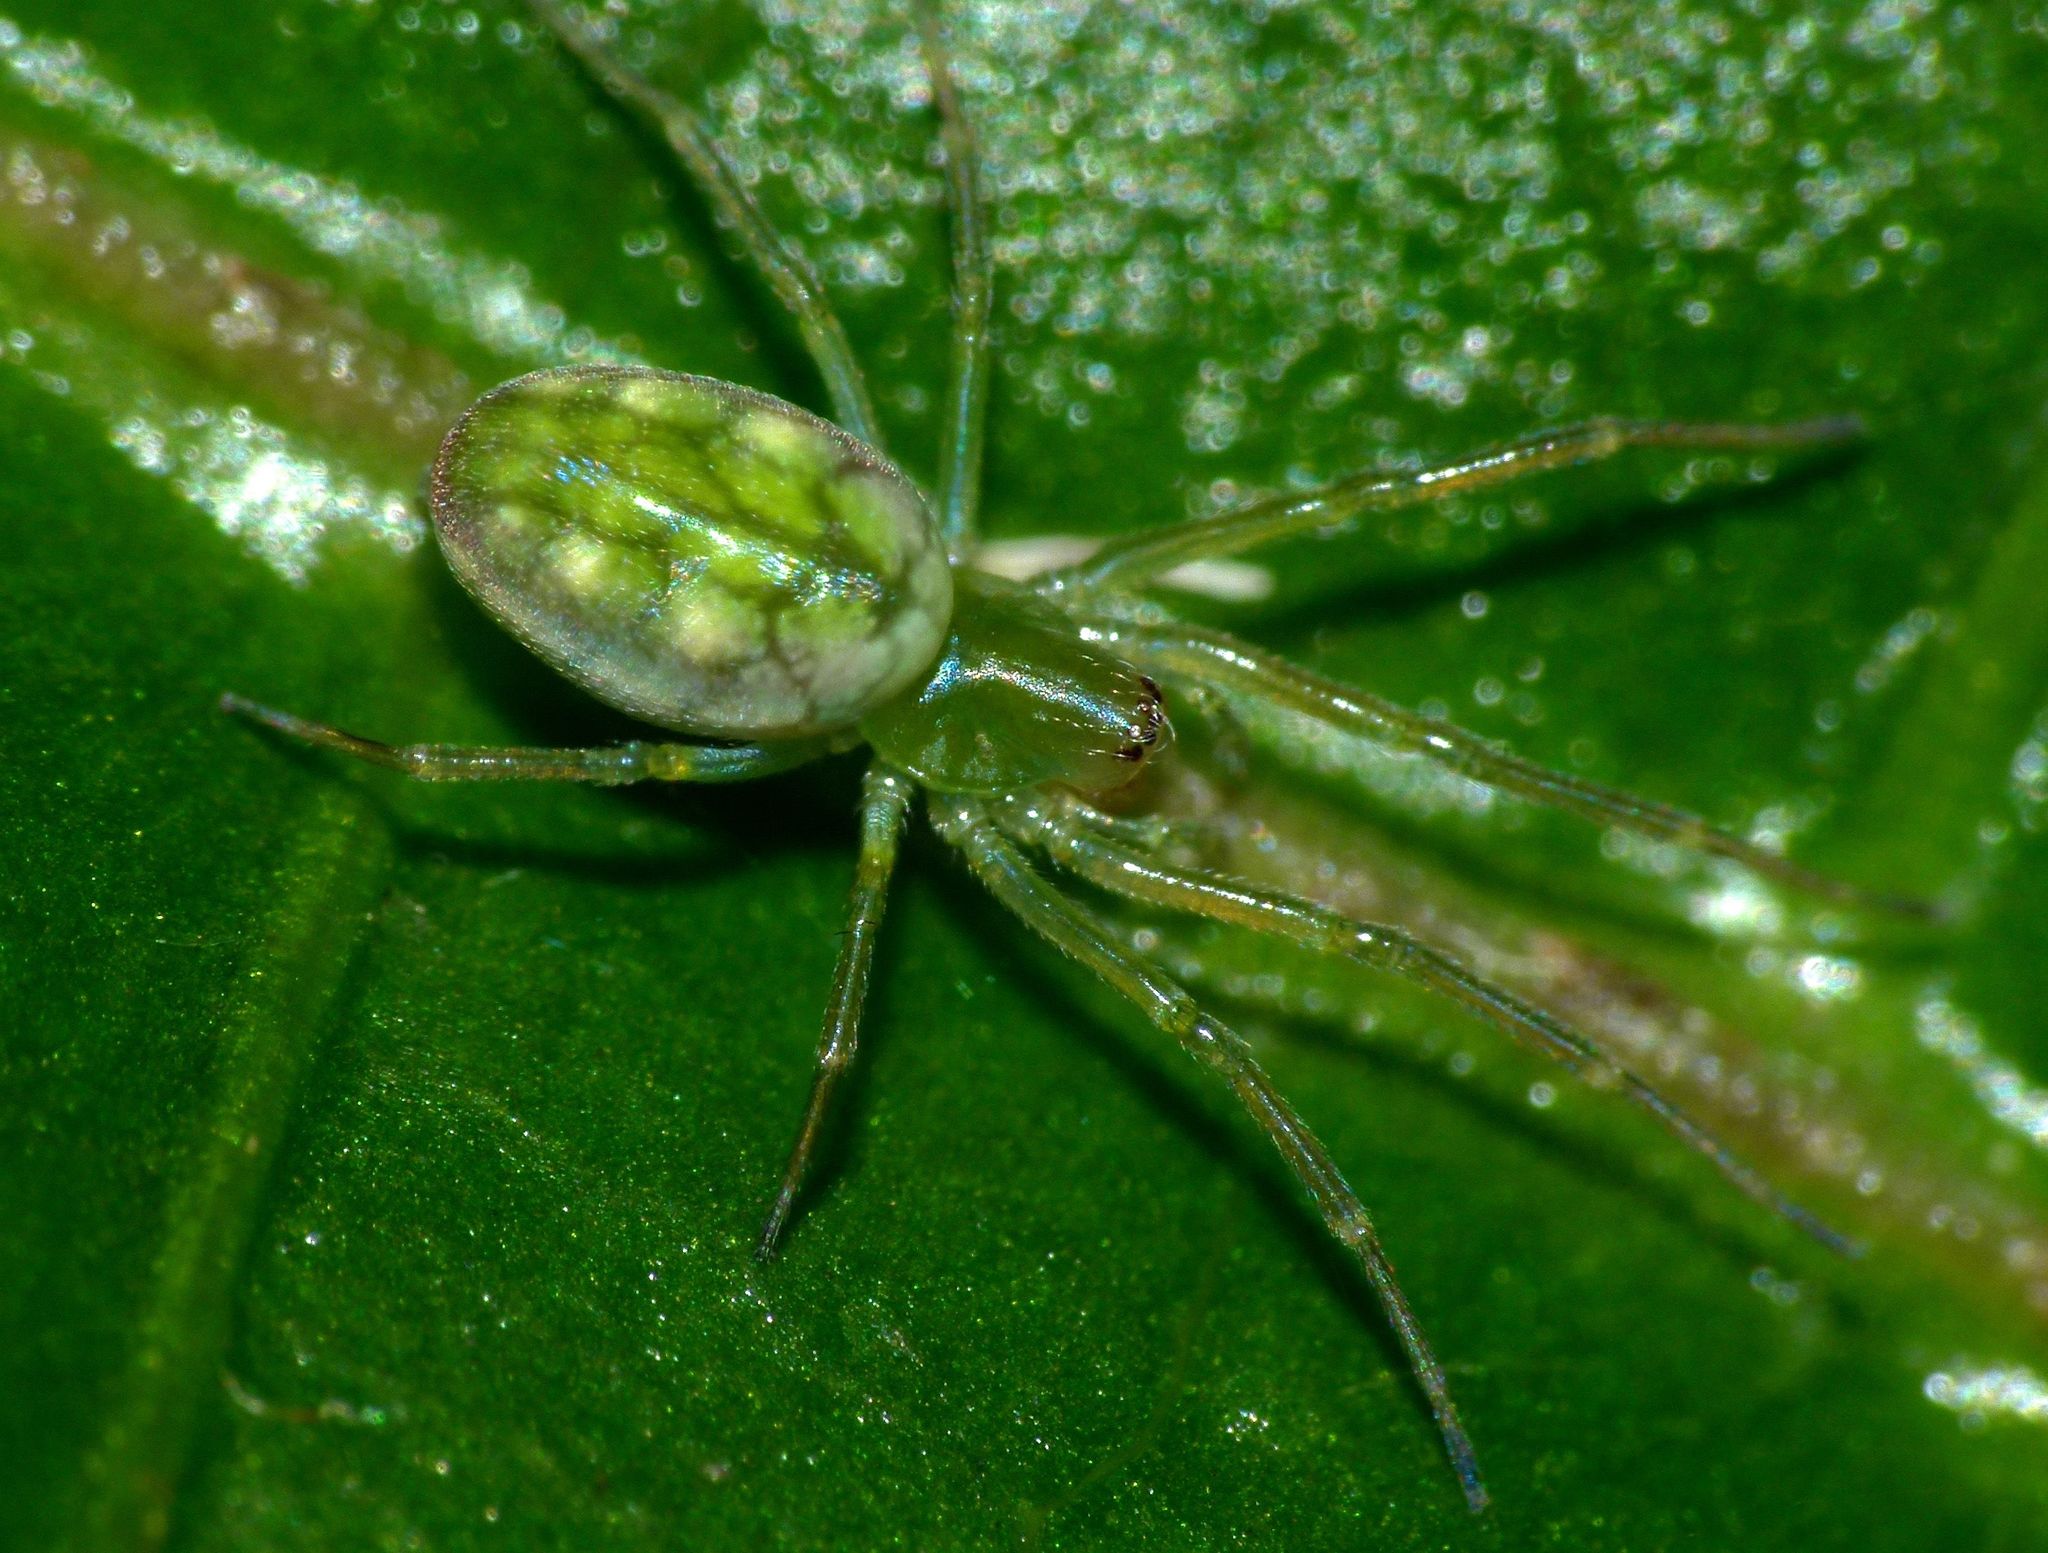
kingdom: Animalia
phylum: Arthropoda
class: Arachnida
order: Araneae
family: Dictynidae
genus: Paradictyna
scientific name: Paradictyna ilamia
